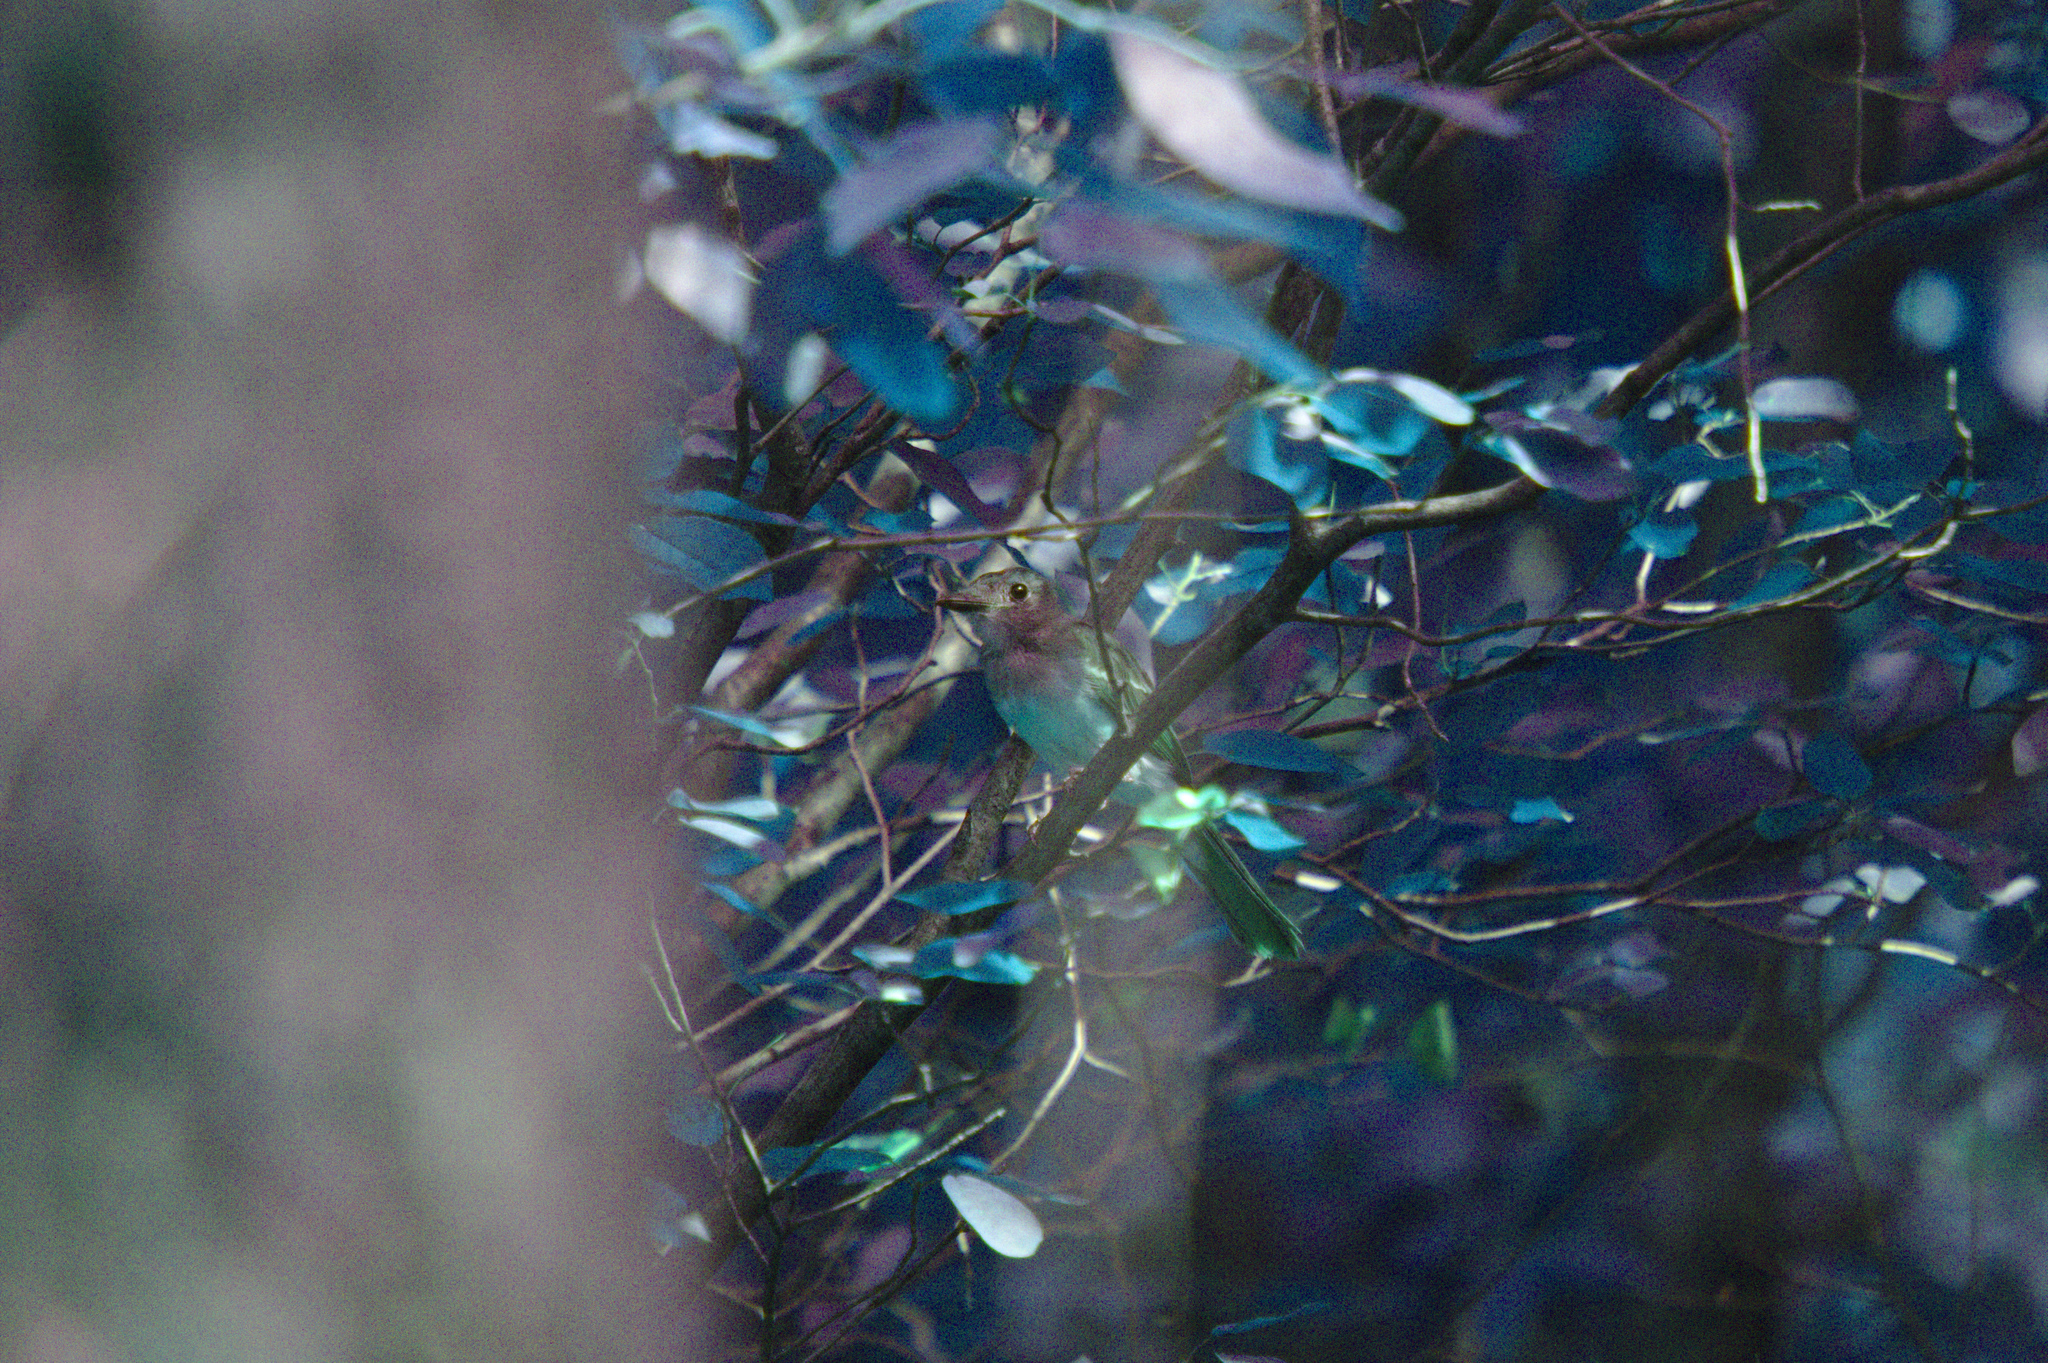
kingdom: Animalia
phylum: Chordata
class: Aves
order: Passeriformes
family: Tyrannidae
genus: Myiarchus
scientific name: Myiarchus crinitus
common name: Great crested flycatcher
